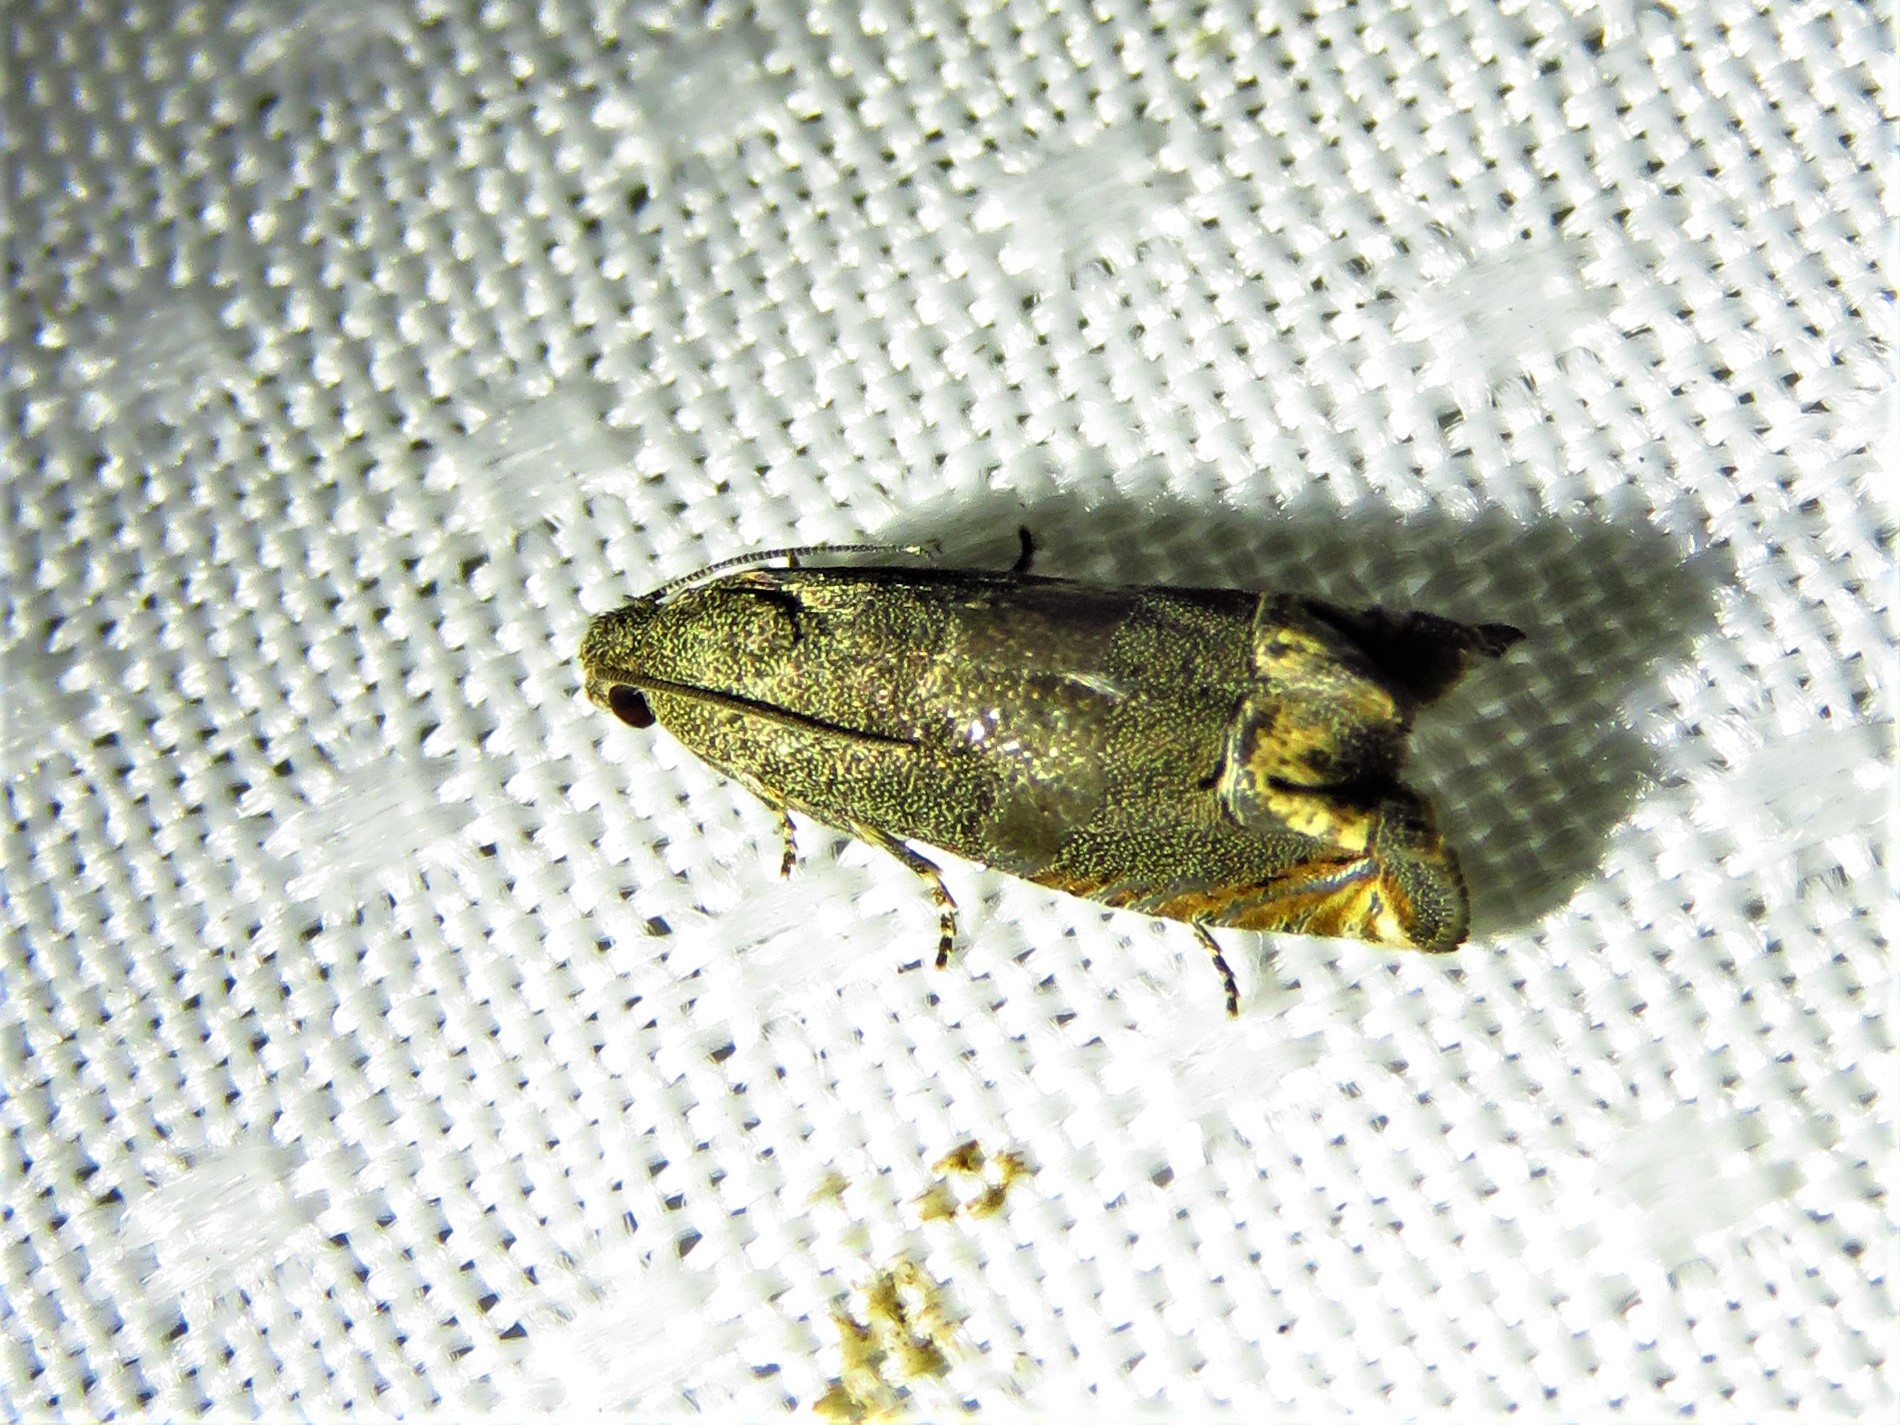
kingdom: Animalia
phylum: Arthropoda
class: Insecta
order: Lepidoptera
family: Tortricidae
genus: Epiblema
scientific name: Epiblema strenuana
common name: Ragweed borer moth
